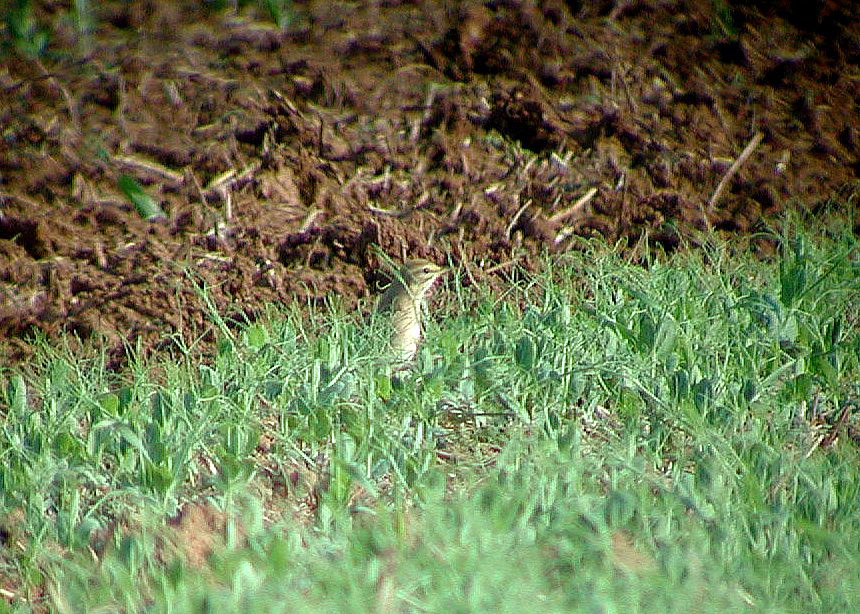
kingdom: Animalia
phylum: Chordata
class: Aves
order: Passeriformes
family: Motacillidae
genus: Anthus
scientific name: Anthus campestris
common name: Tawny pipit
